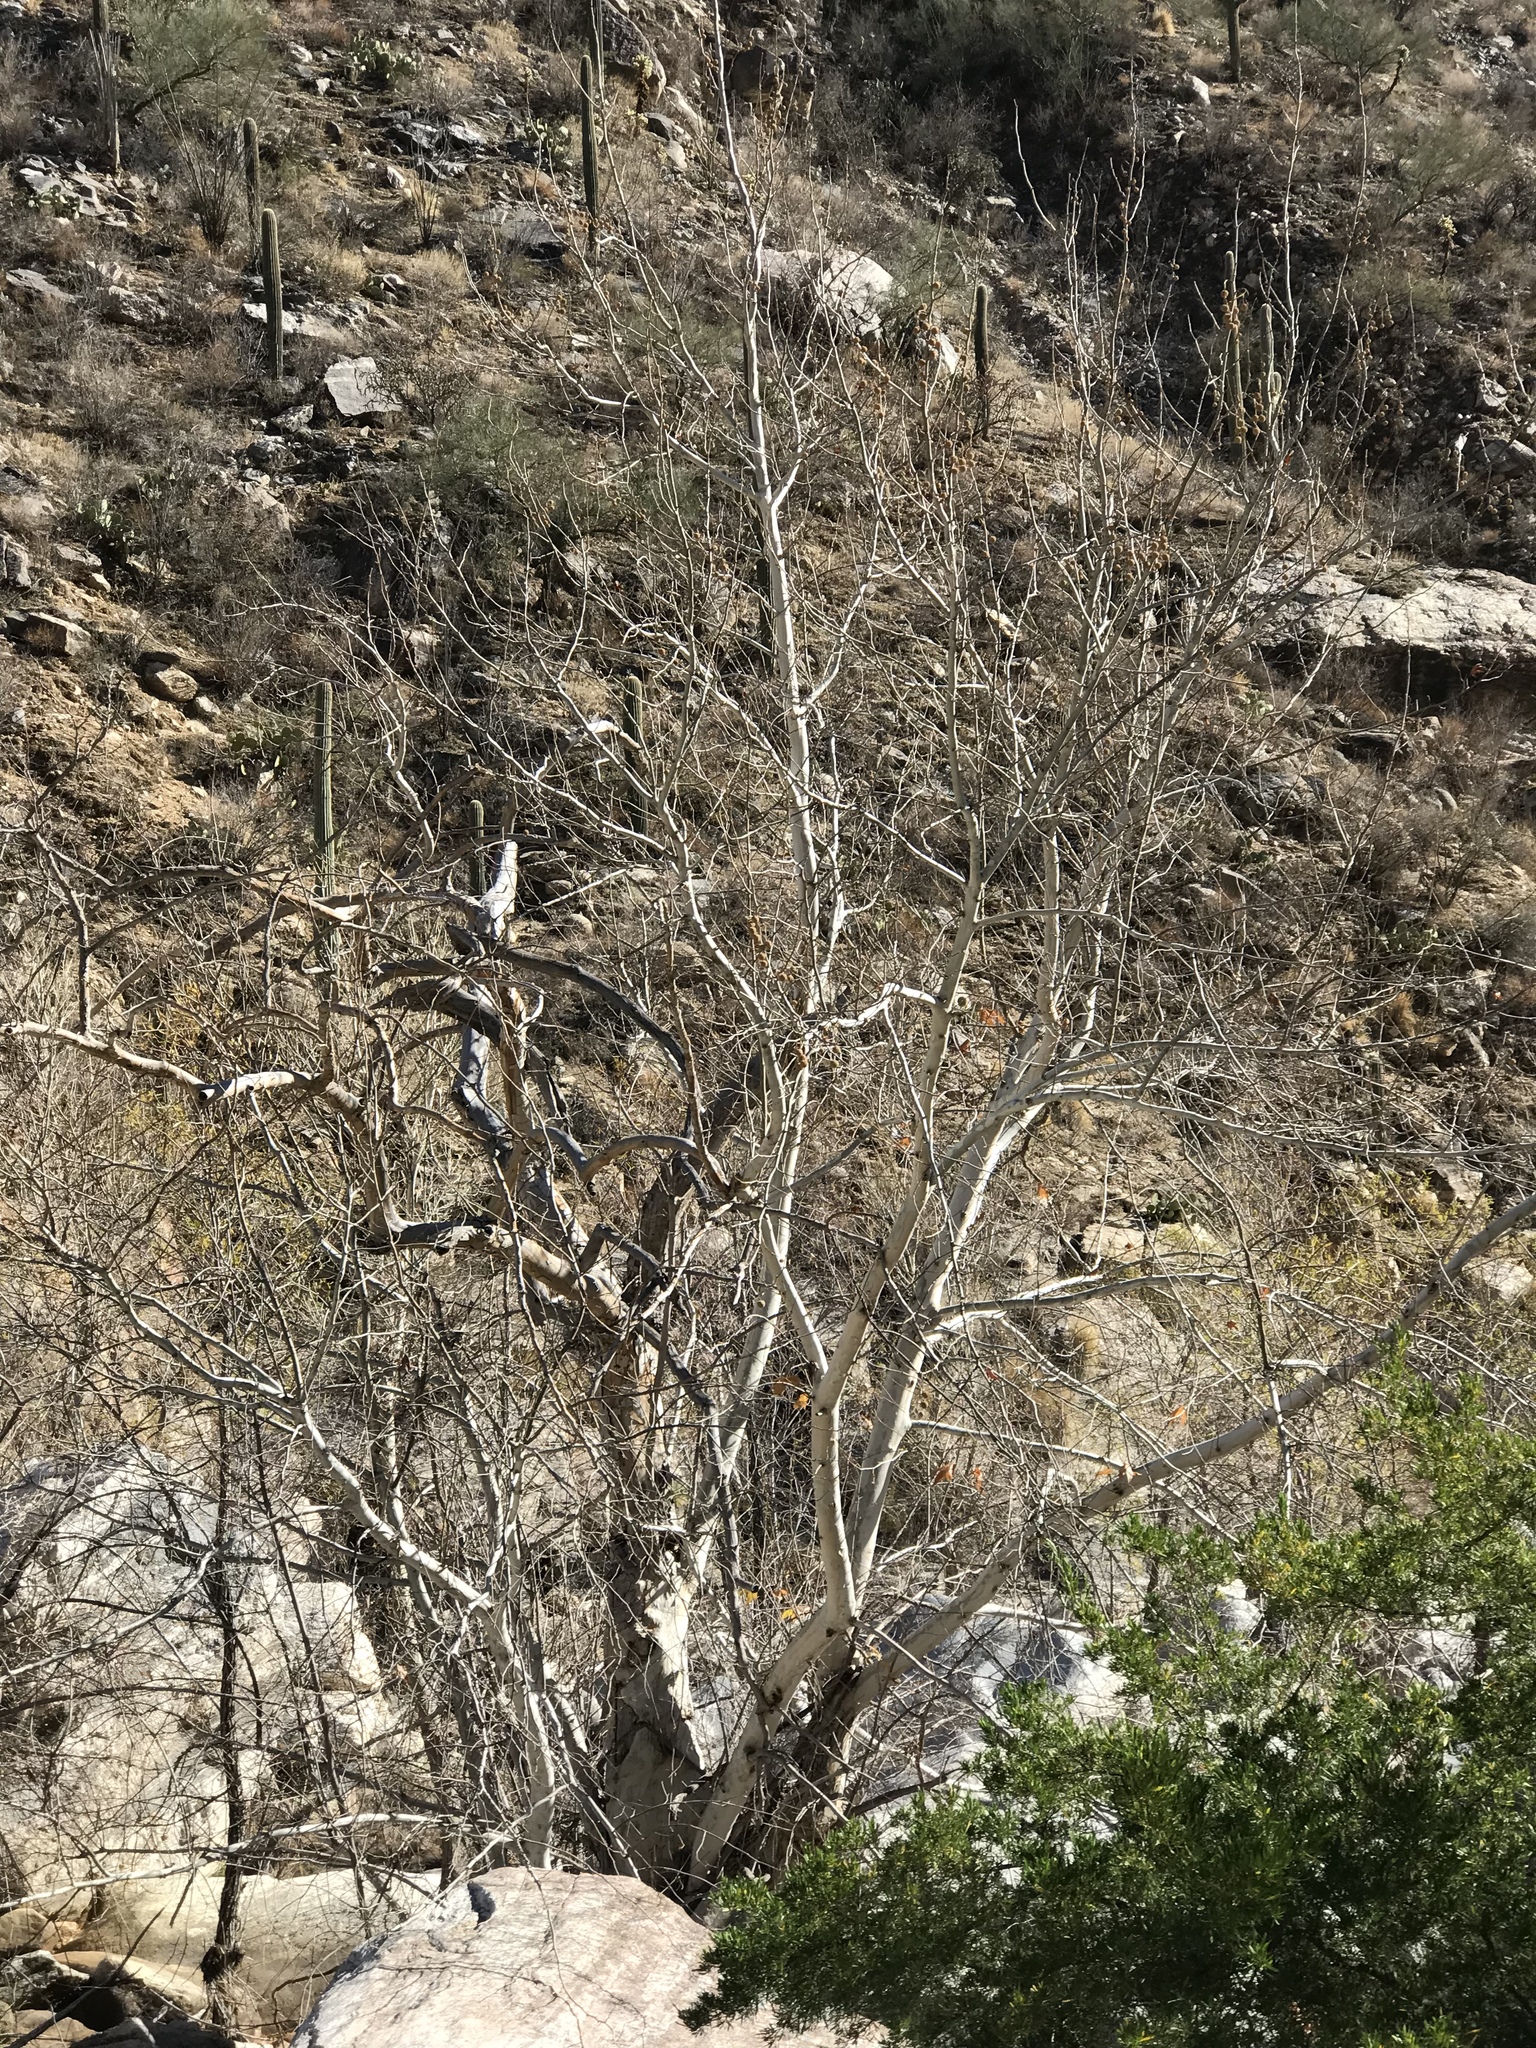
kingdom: Plantae
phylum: Tracheophyta
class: Magnoliopsida
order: Proteales
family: Platanaceae
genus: Platanus
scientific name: Platanus wrightii
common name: Arizona sycamore
